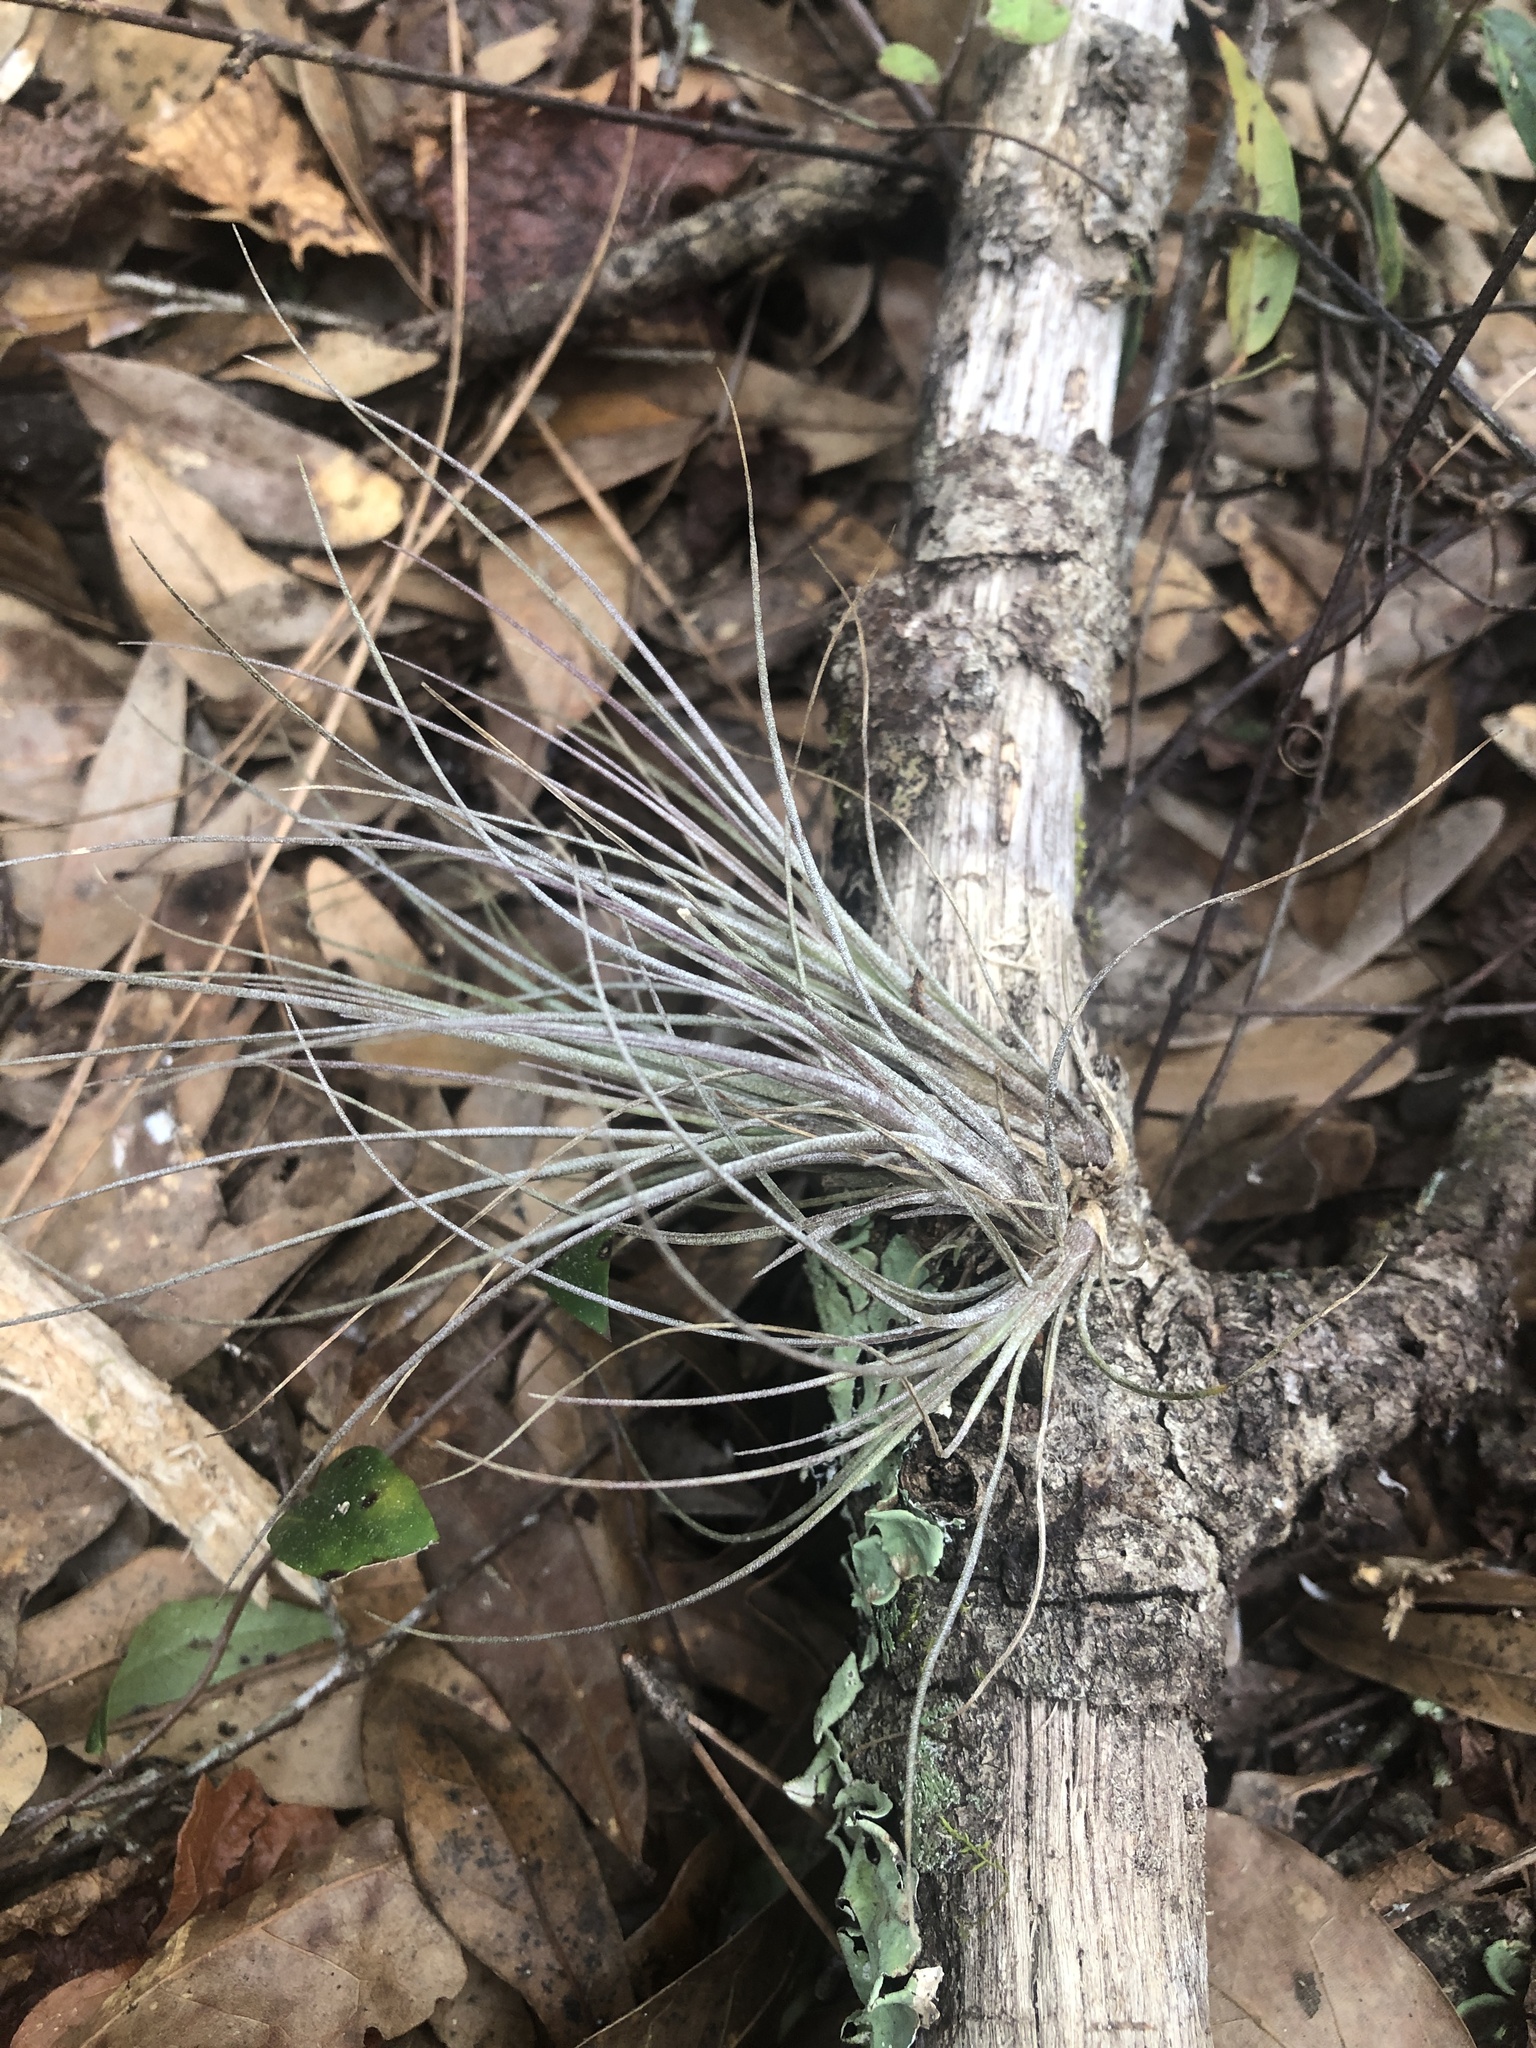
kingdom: Plantae
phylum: Tracheophyta
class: Liliopsida
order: Poales
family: Bromeliaceae
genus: Tillandsia
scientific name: Tillandsia bartramii
